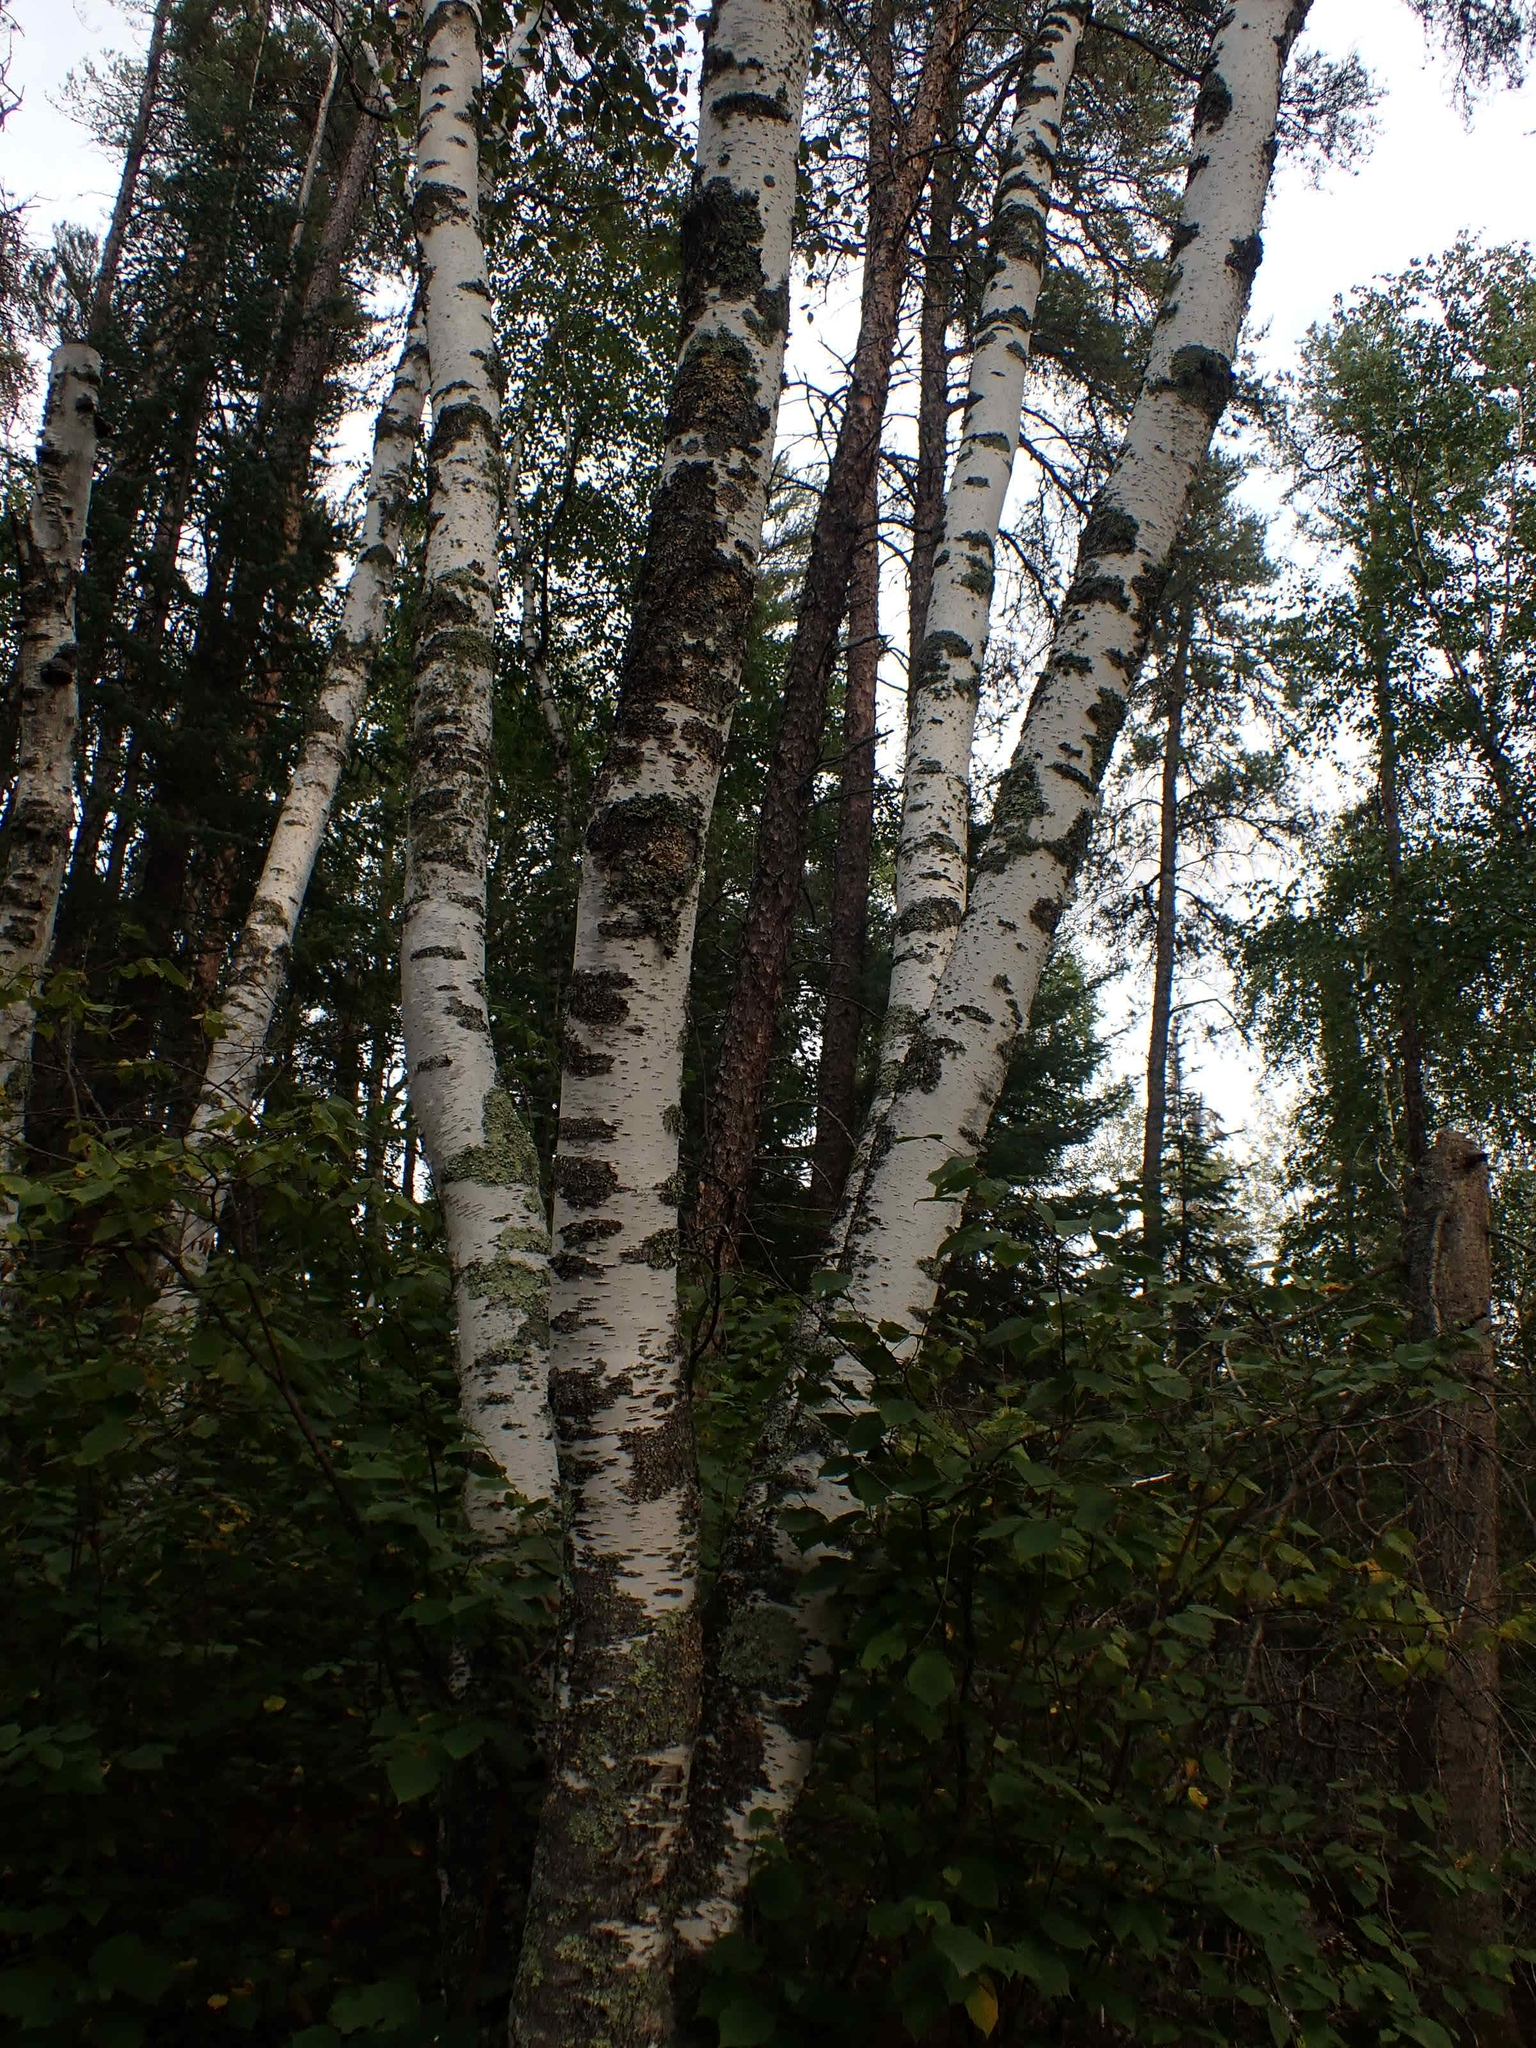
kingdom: Plantae
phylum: Tracheophyta
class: Magnoliopsida
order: Fagales
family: Betulaceae
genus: Betula
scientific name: Betula papyrifera
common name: Paper birch
